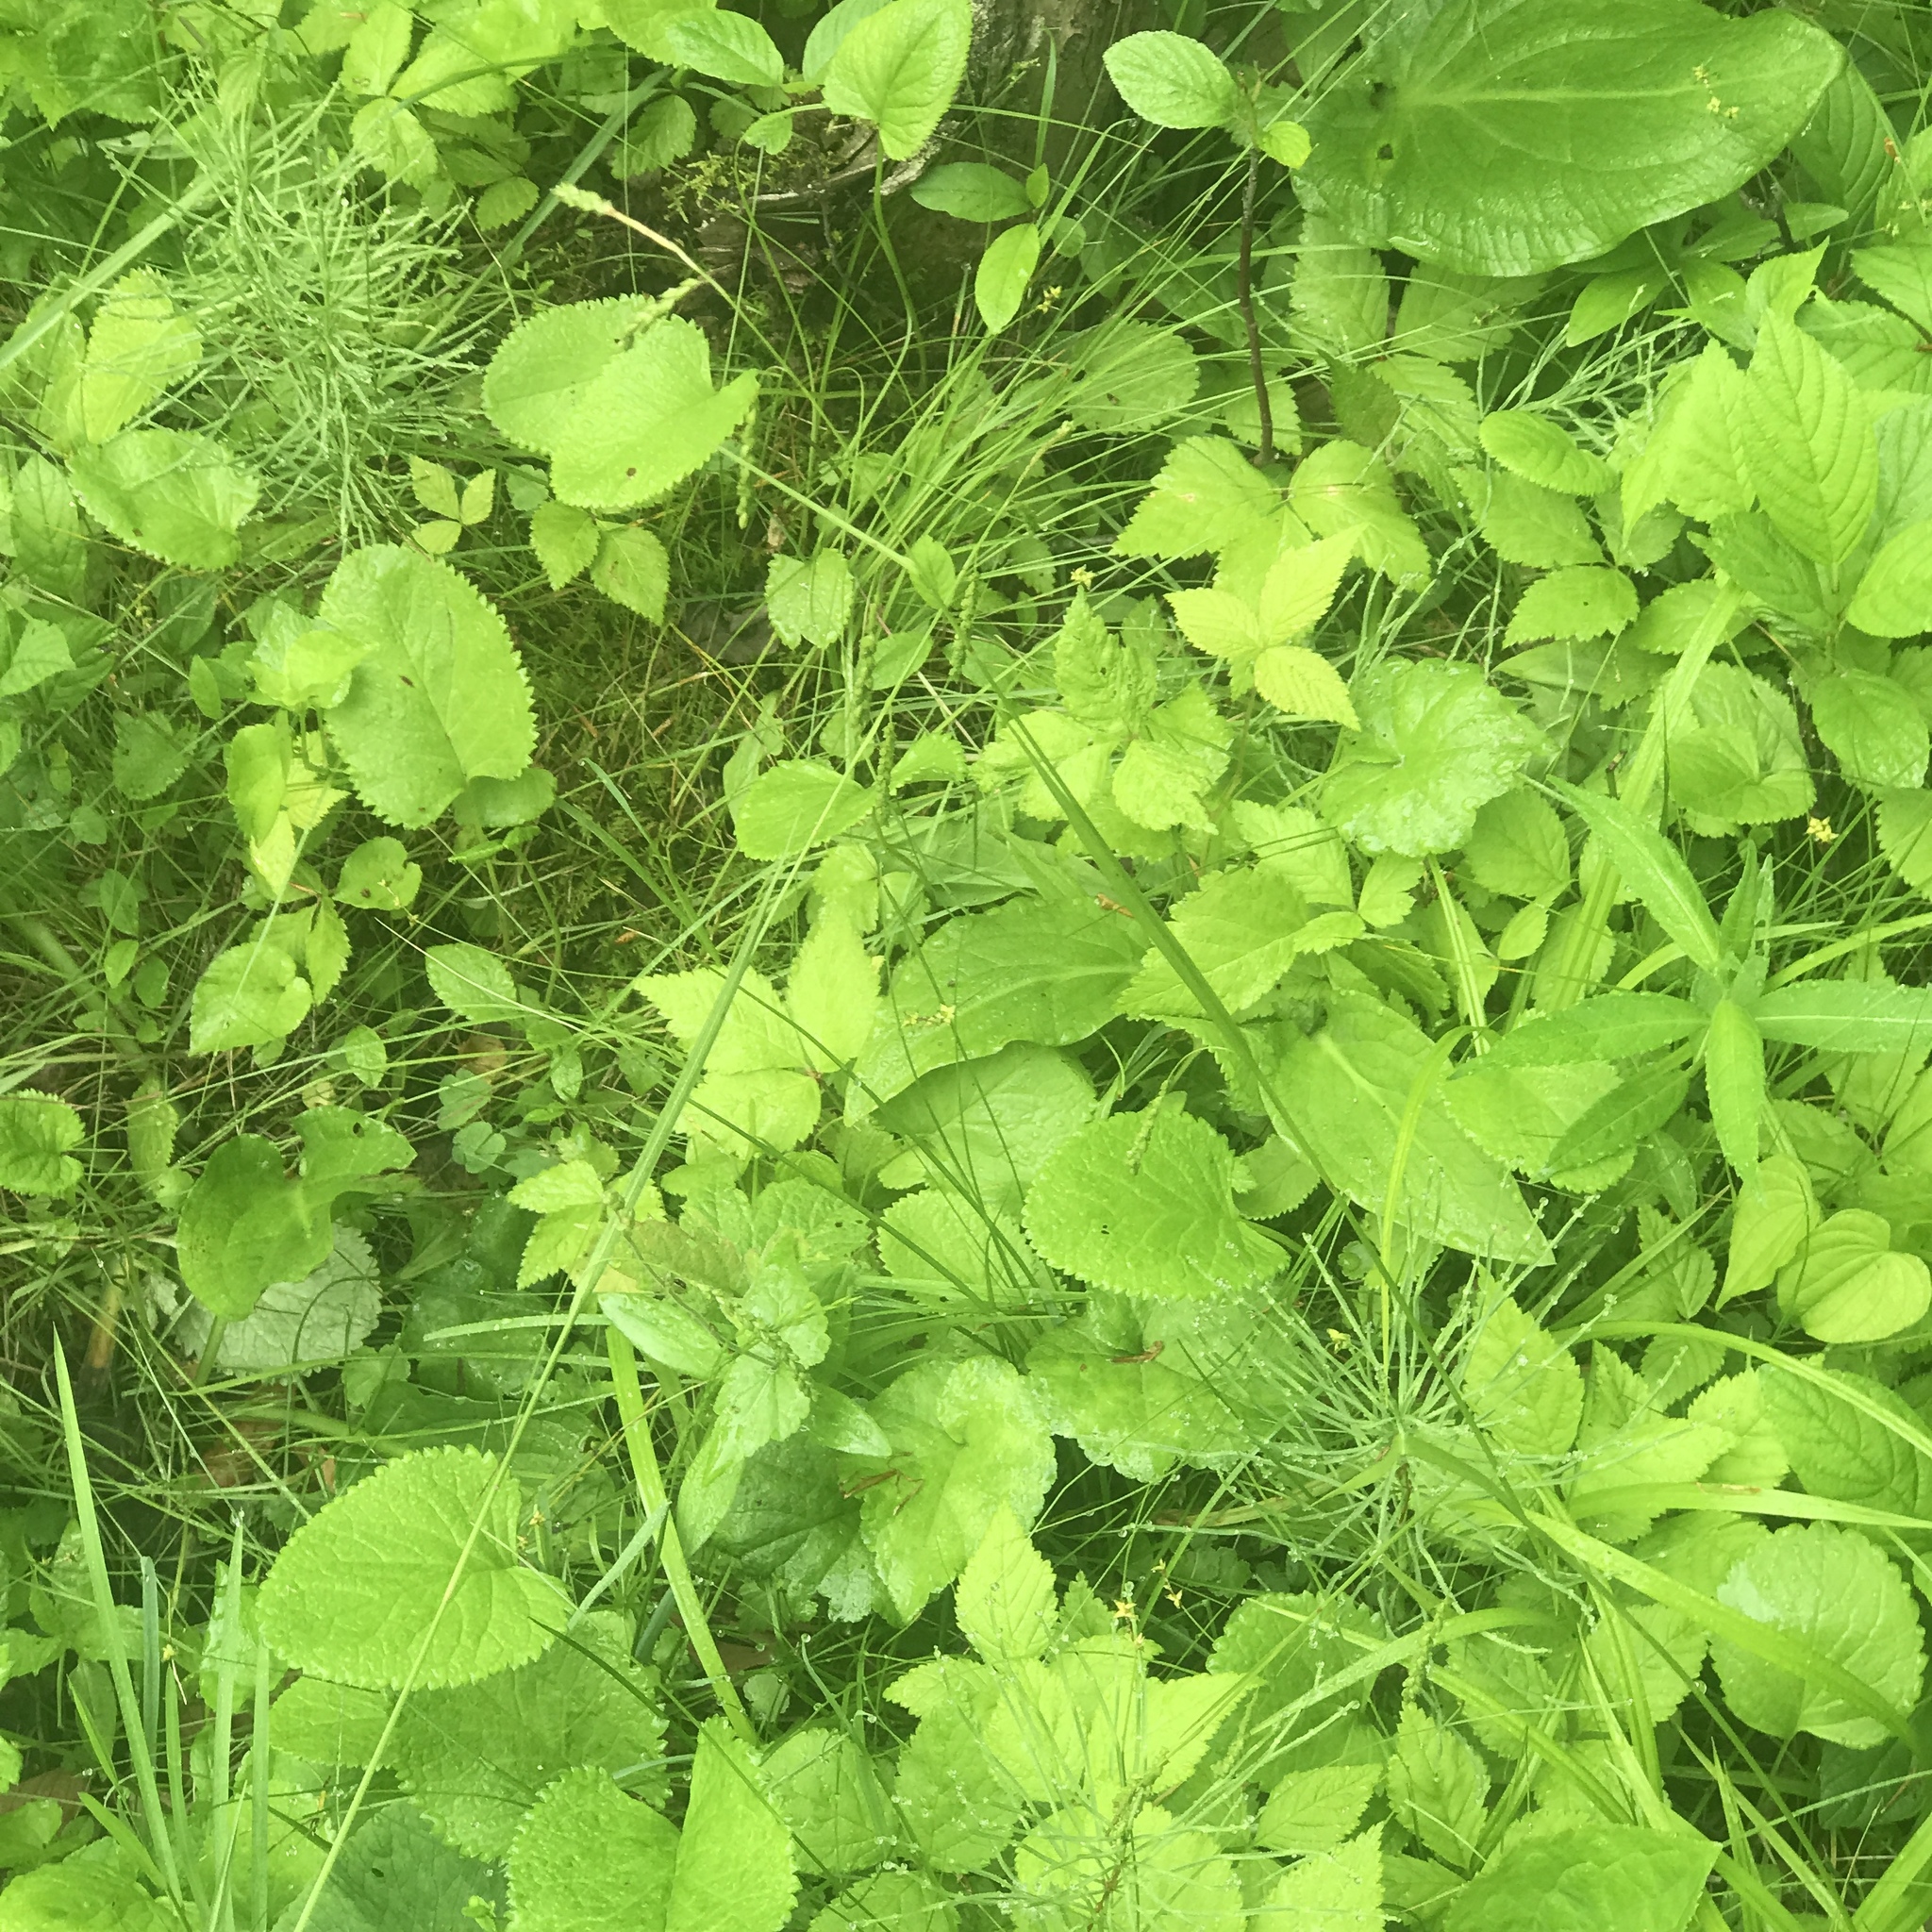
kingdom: Plantae
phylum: Tracheophyta
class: Liliopsida
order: Poales
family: Cyperaceae
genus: Carex
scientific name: Carex gracillima
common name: Graceful sedge
